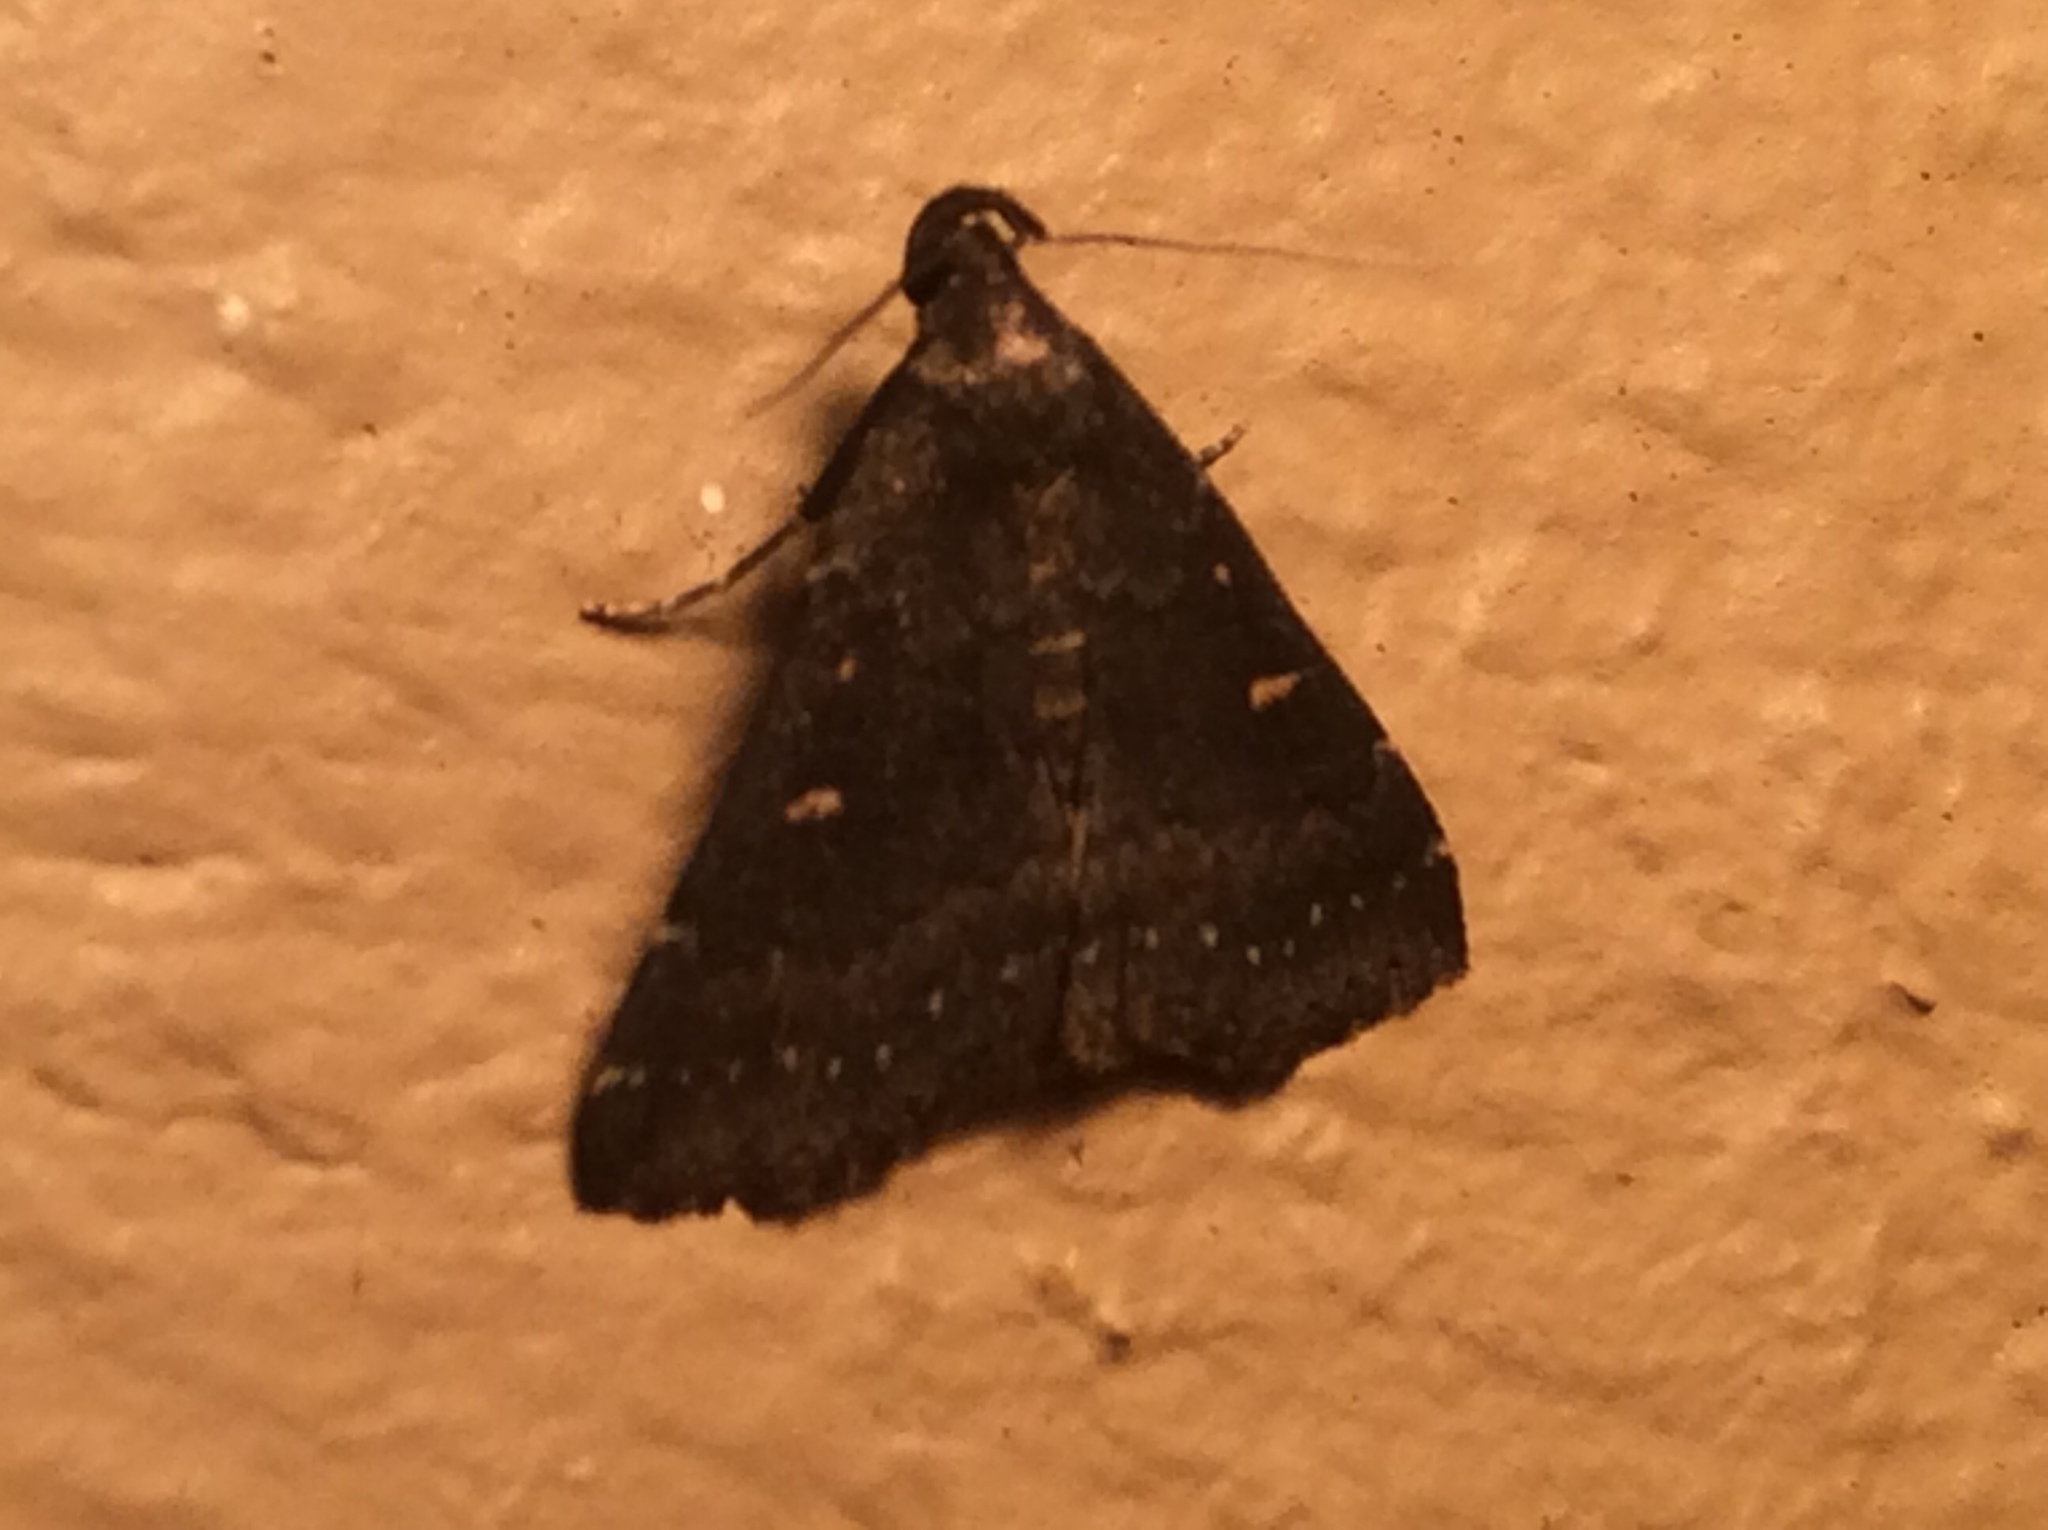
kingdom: Animalia
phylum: Arthropoda
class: Insecta
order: Lepidoptera
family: Erebidae
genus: Tetanolita
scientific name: Tetanolita mynesalis
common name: Smoky tetanolita moth
